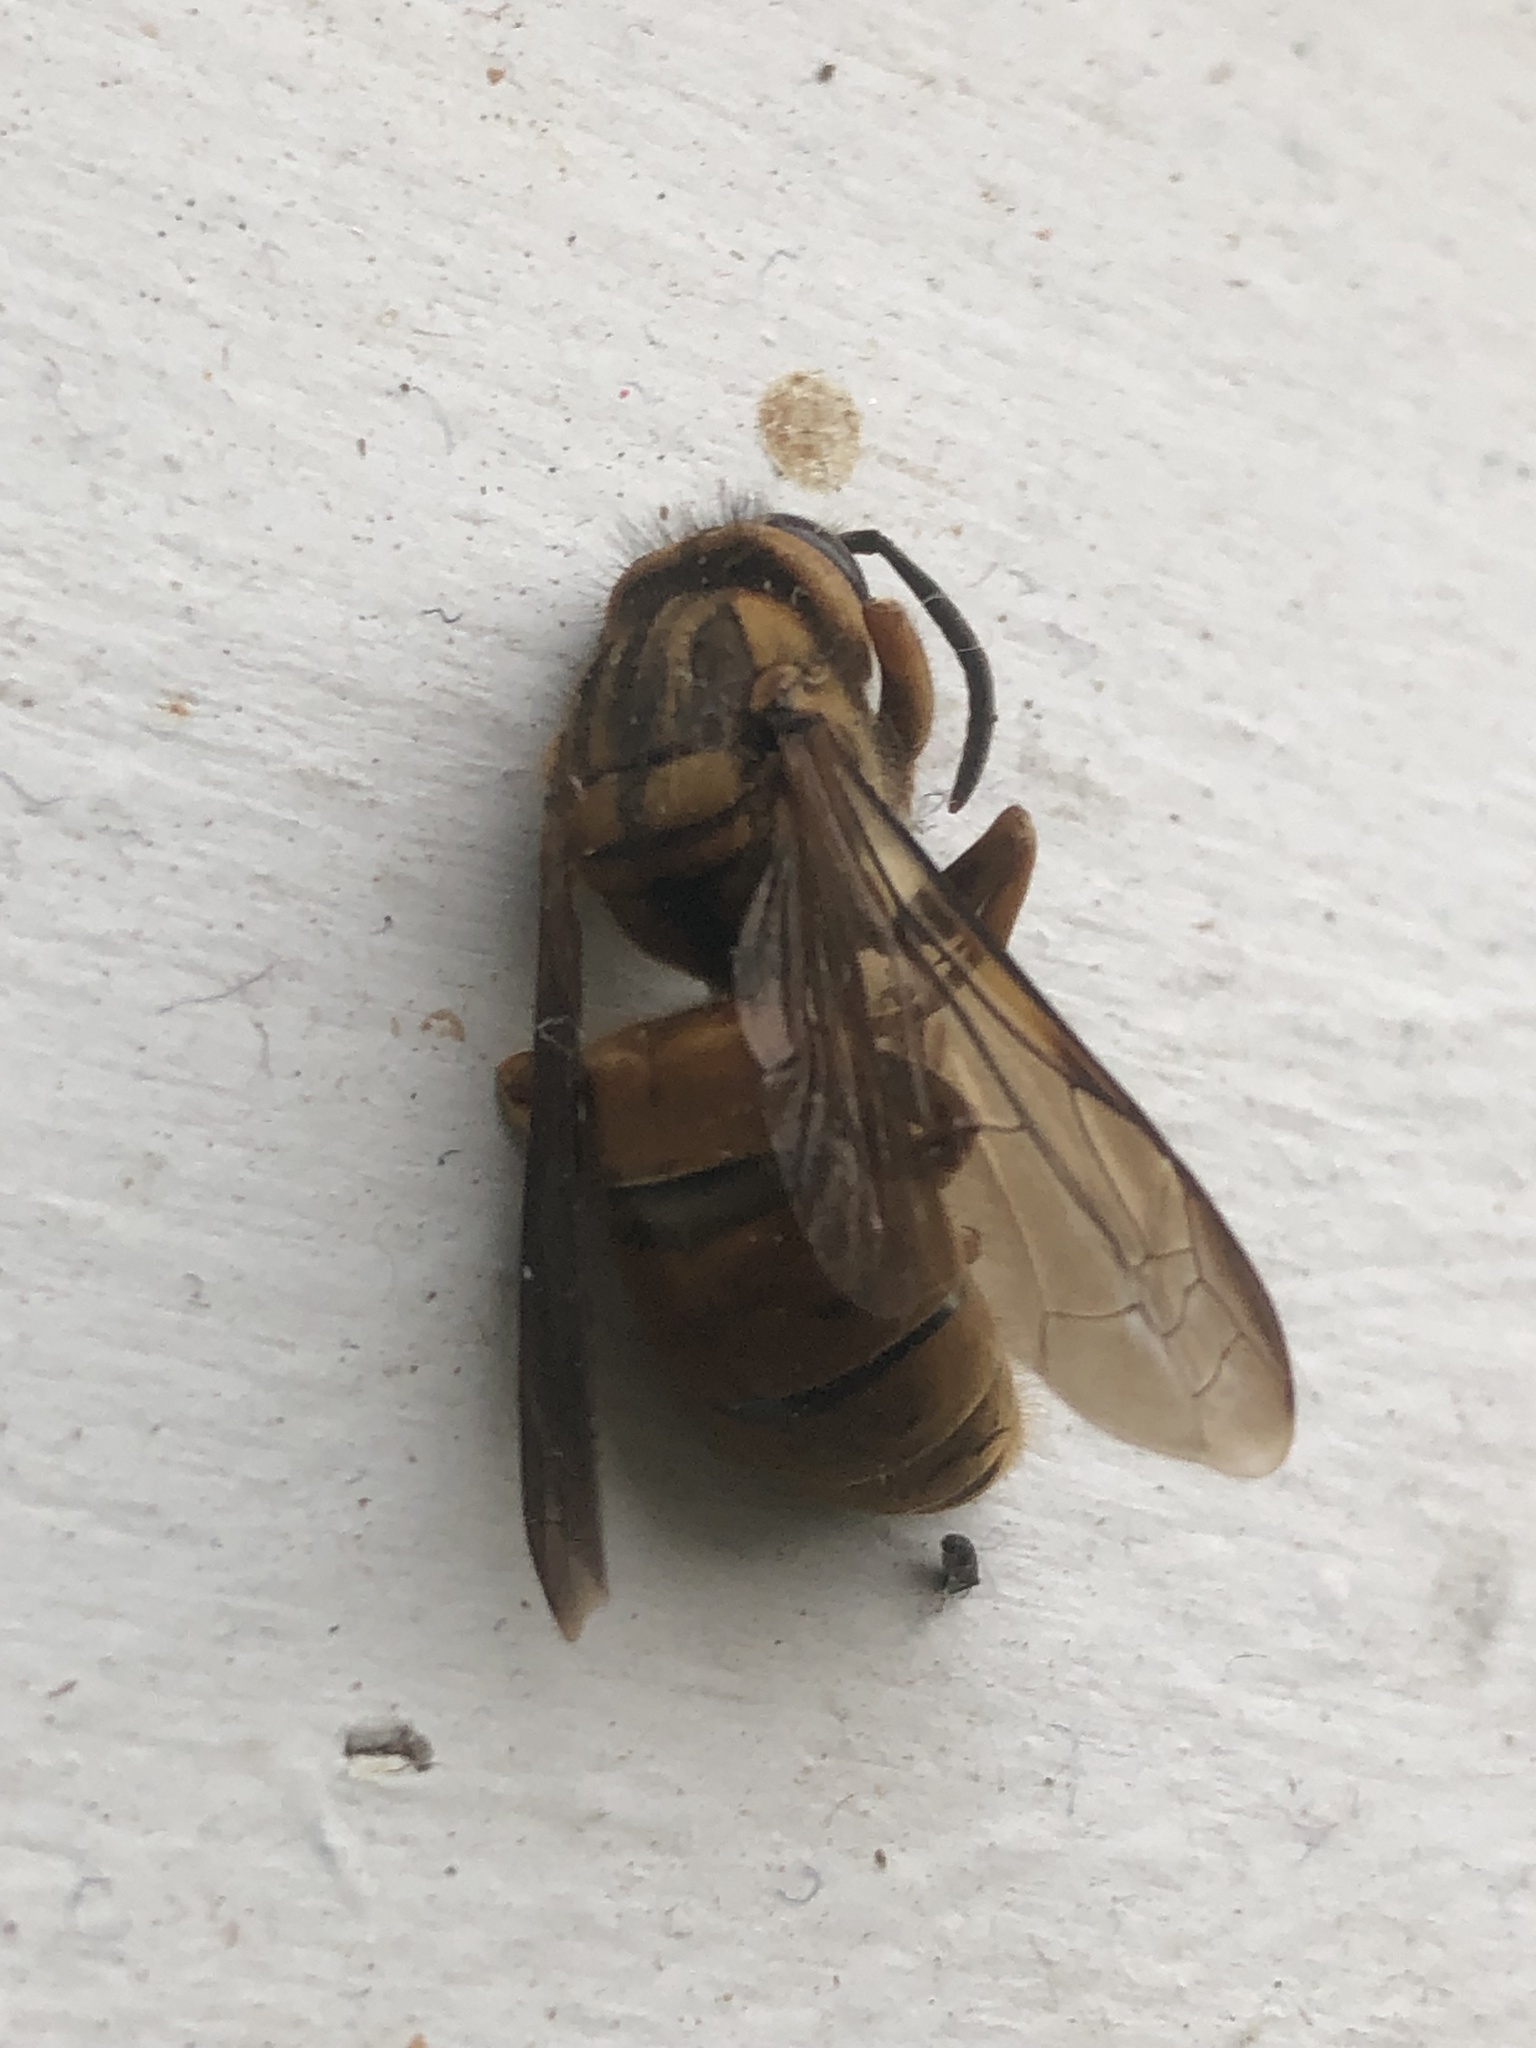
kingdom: Animalia
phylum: Arthropoda
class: Insecta
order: Hymenoptera
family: Vespidae
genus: Vespula
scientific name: Vespula squamosa
